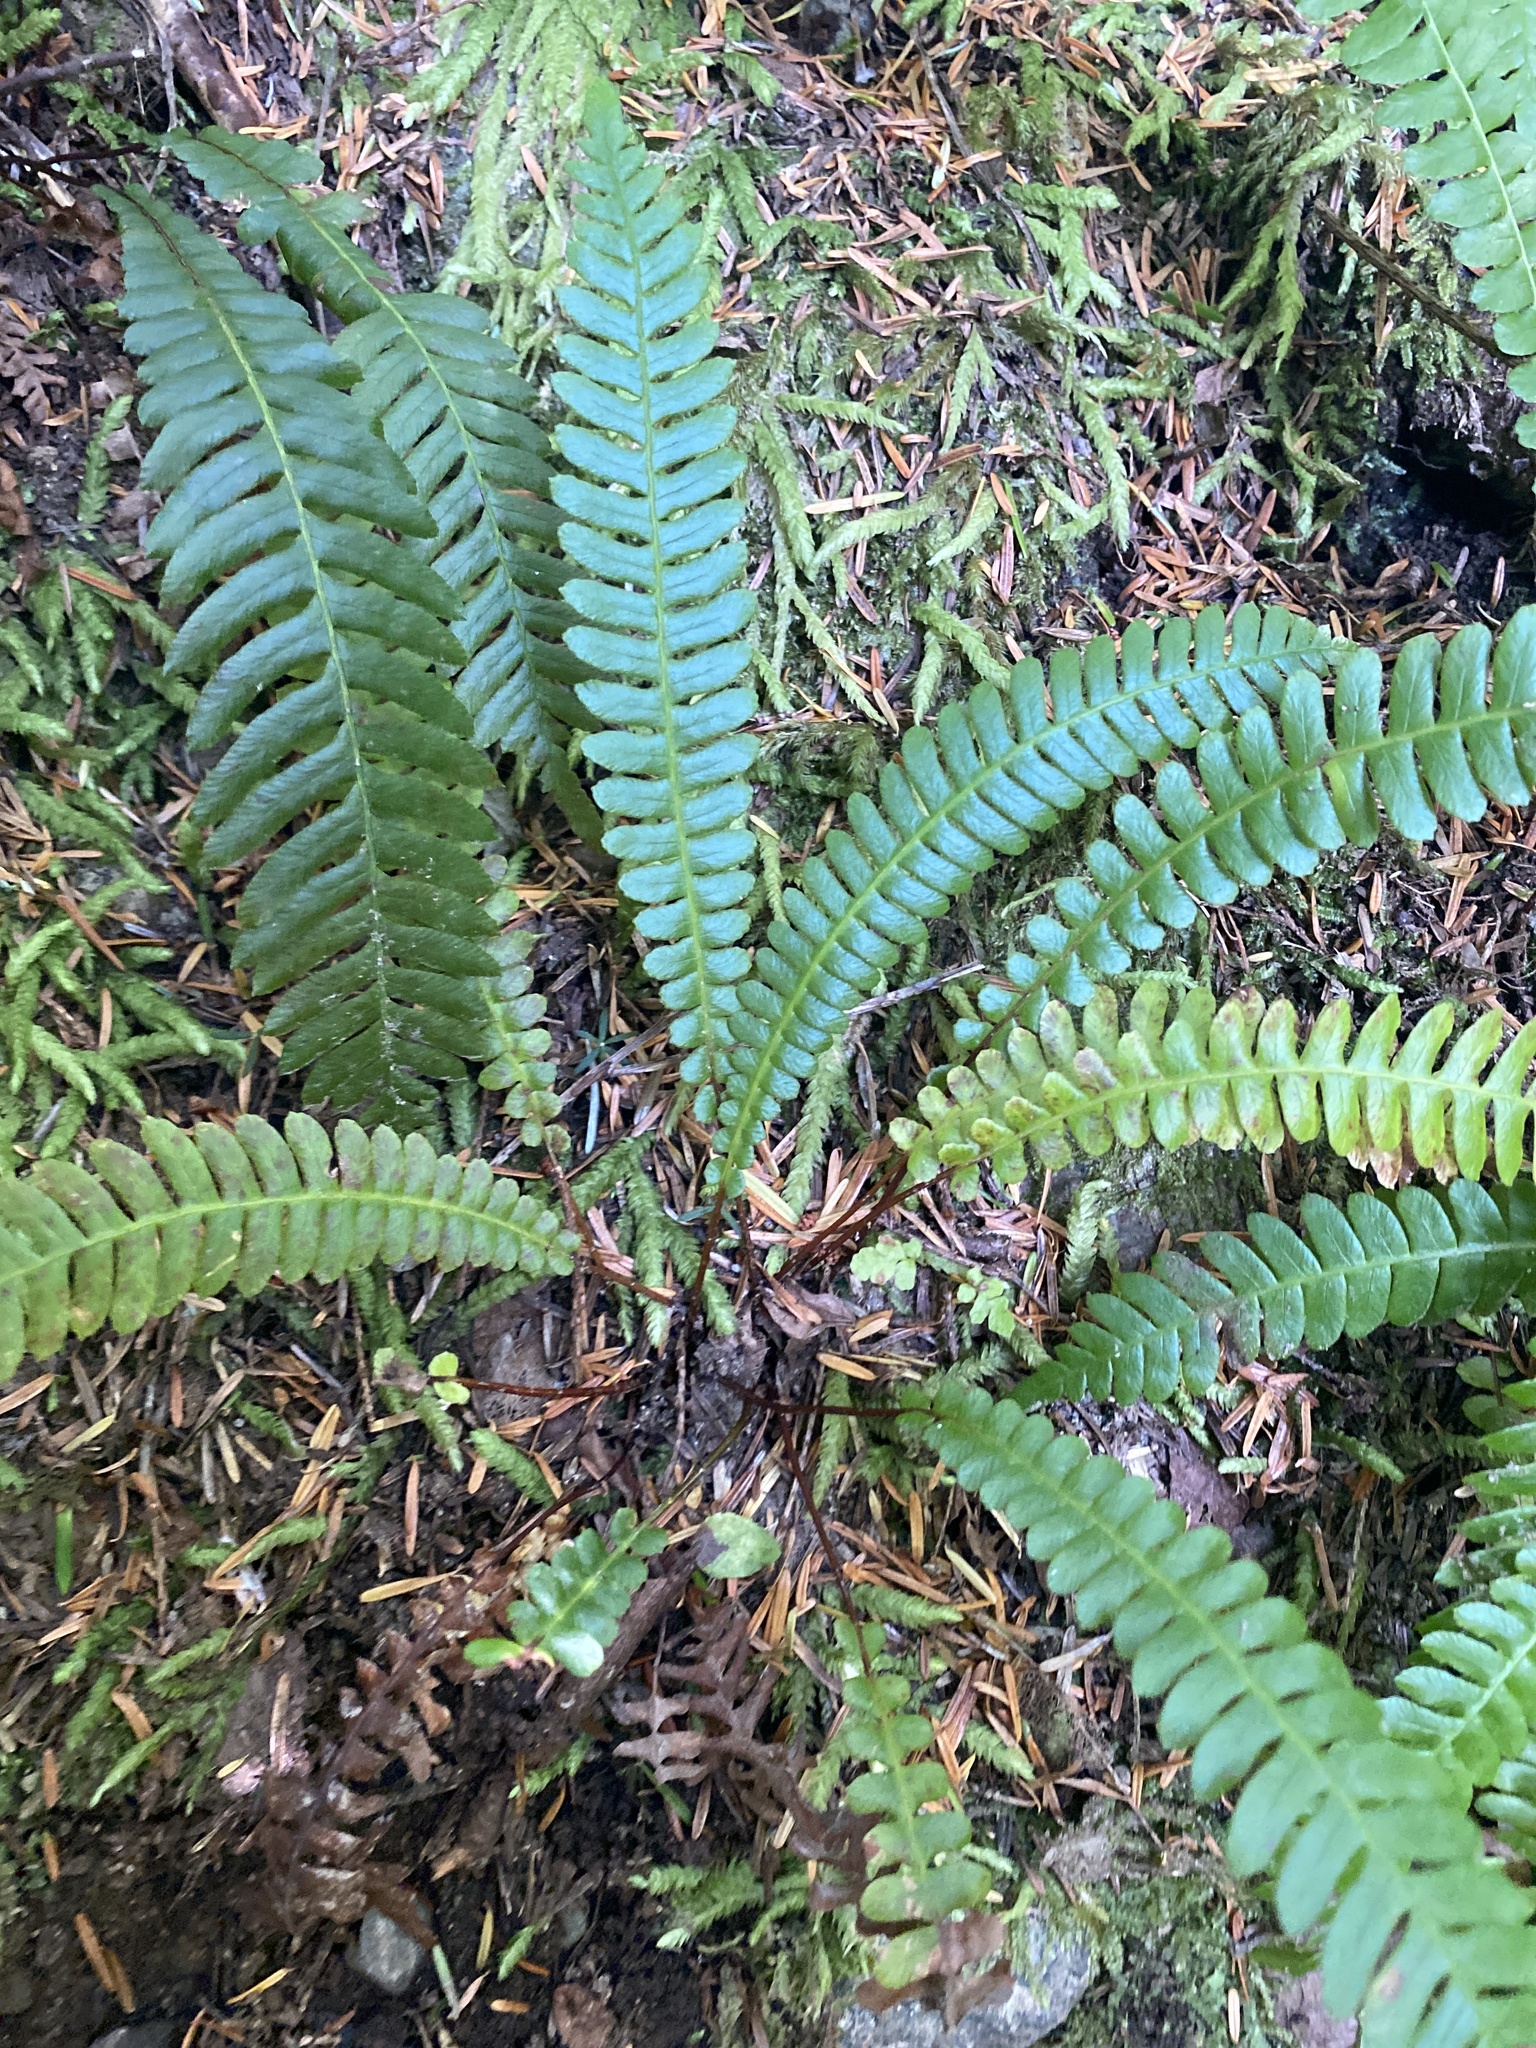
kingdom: Plantae
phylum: Tracheophyta
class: Polypodiopsida
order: Polypodiales
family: Blechnaceae
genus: Struthiopteris
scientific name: Struthiopteris spicant
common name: Deer fern
